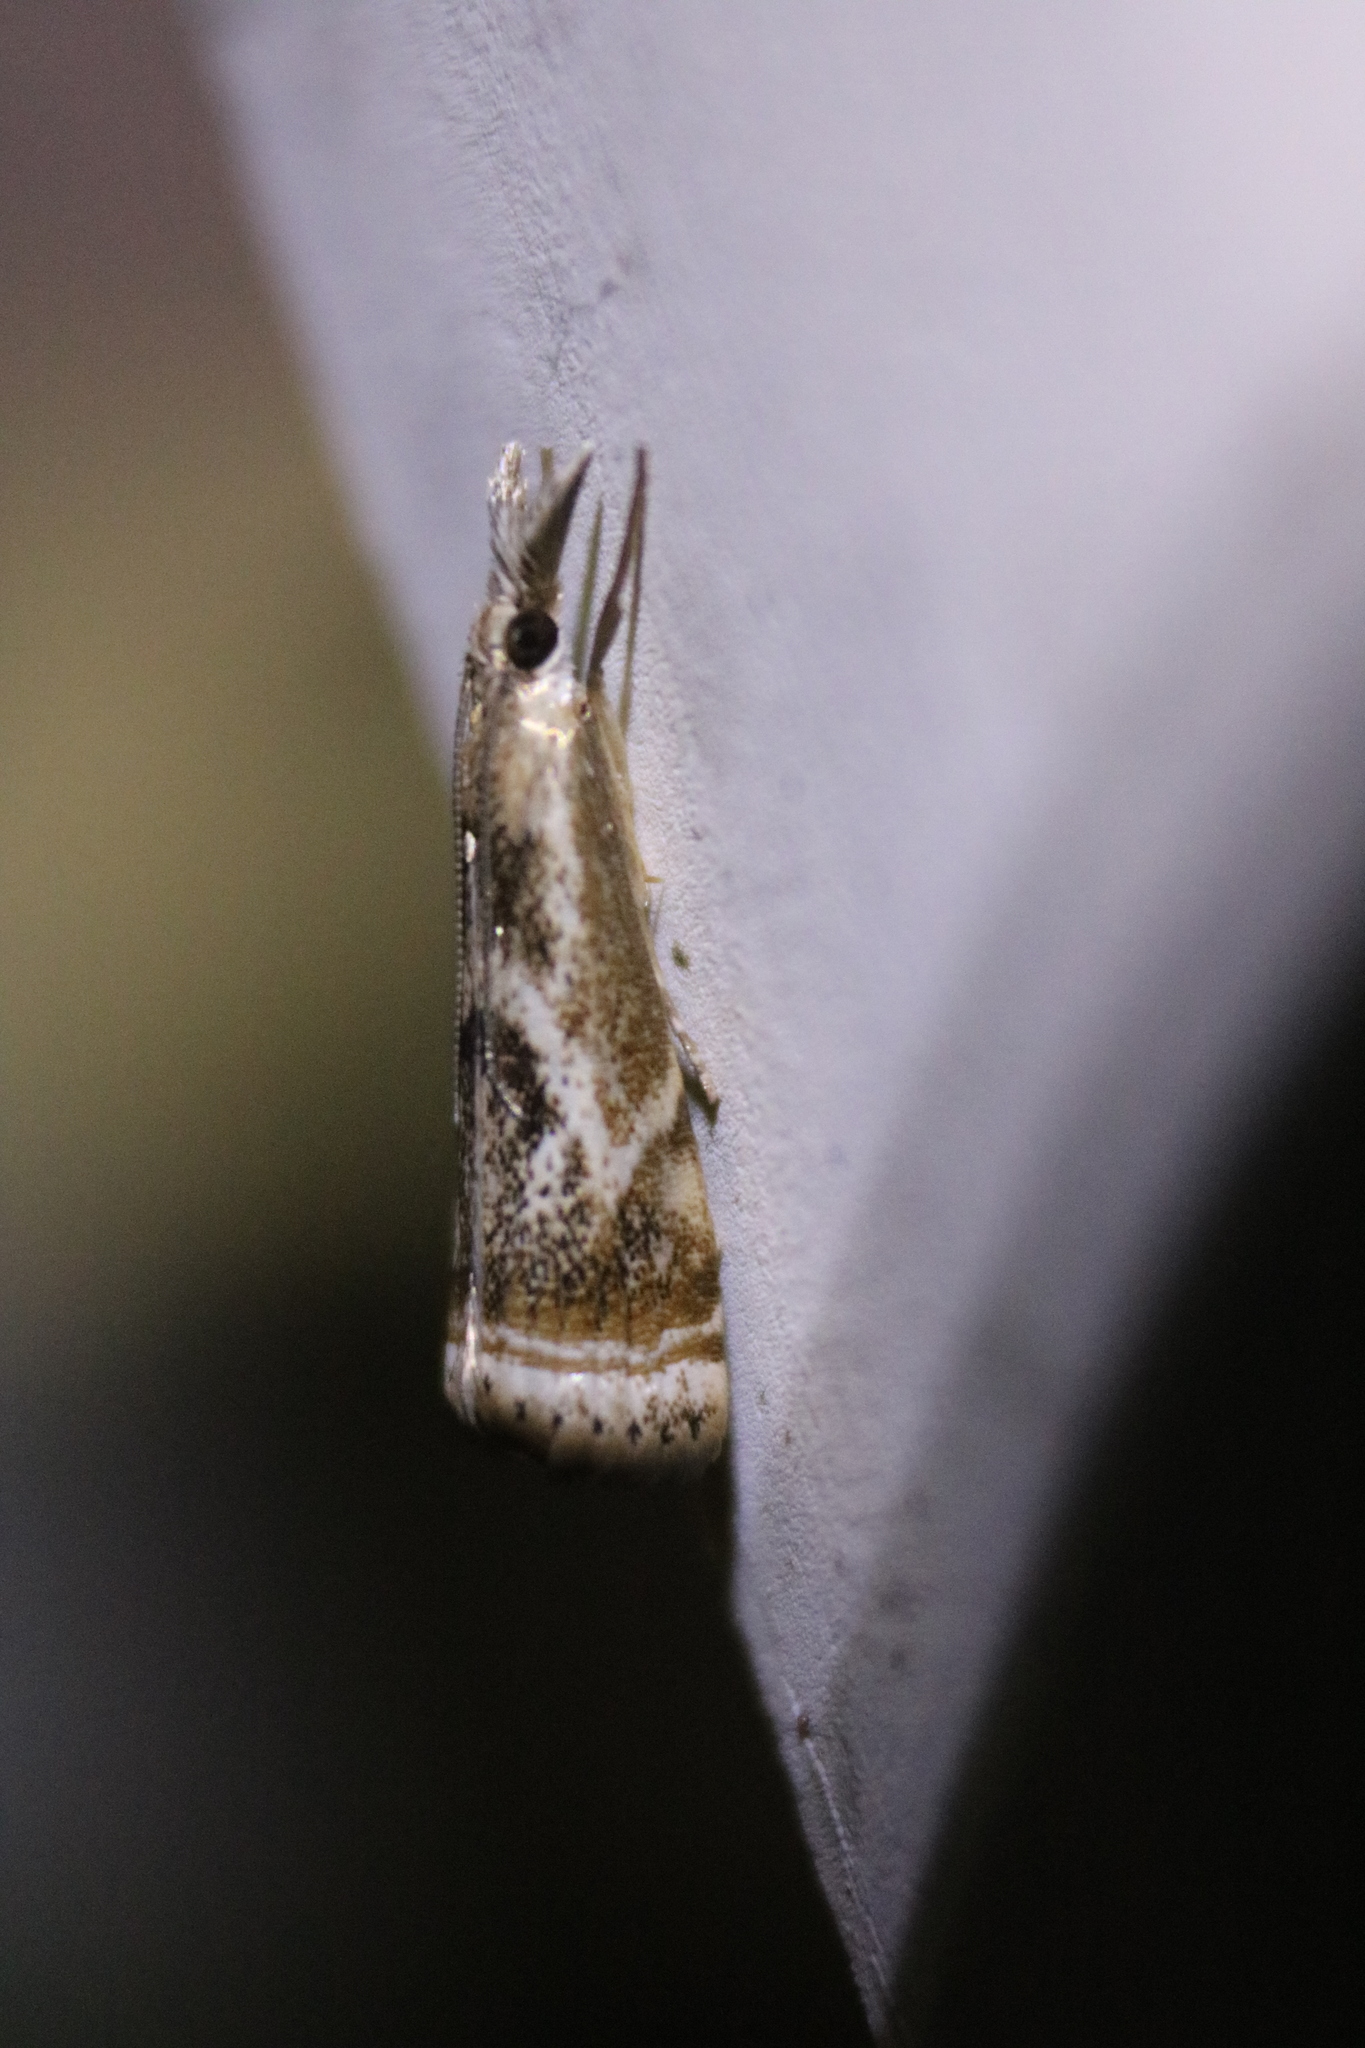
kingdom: Animalia
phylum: Arthropoda
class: Insecta
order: Lepidoptera
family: Crambidae
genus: Microcrambus
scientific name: Microcrambus elegans
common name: Elegant grass-veneer
